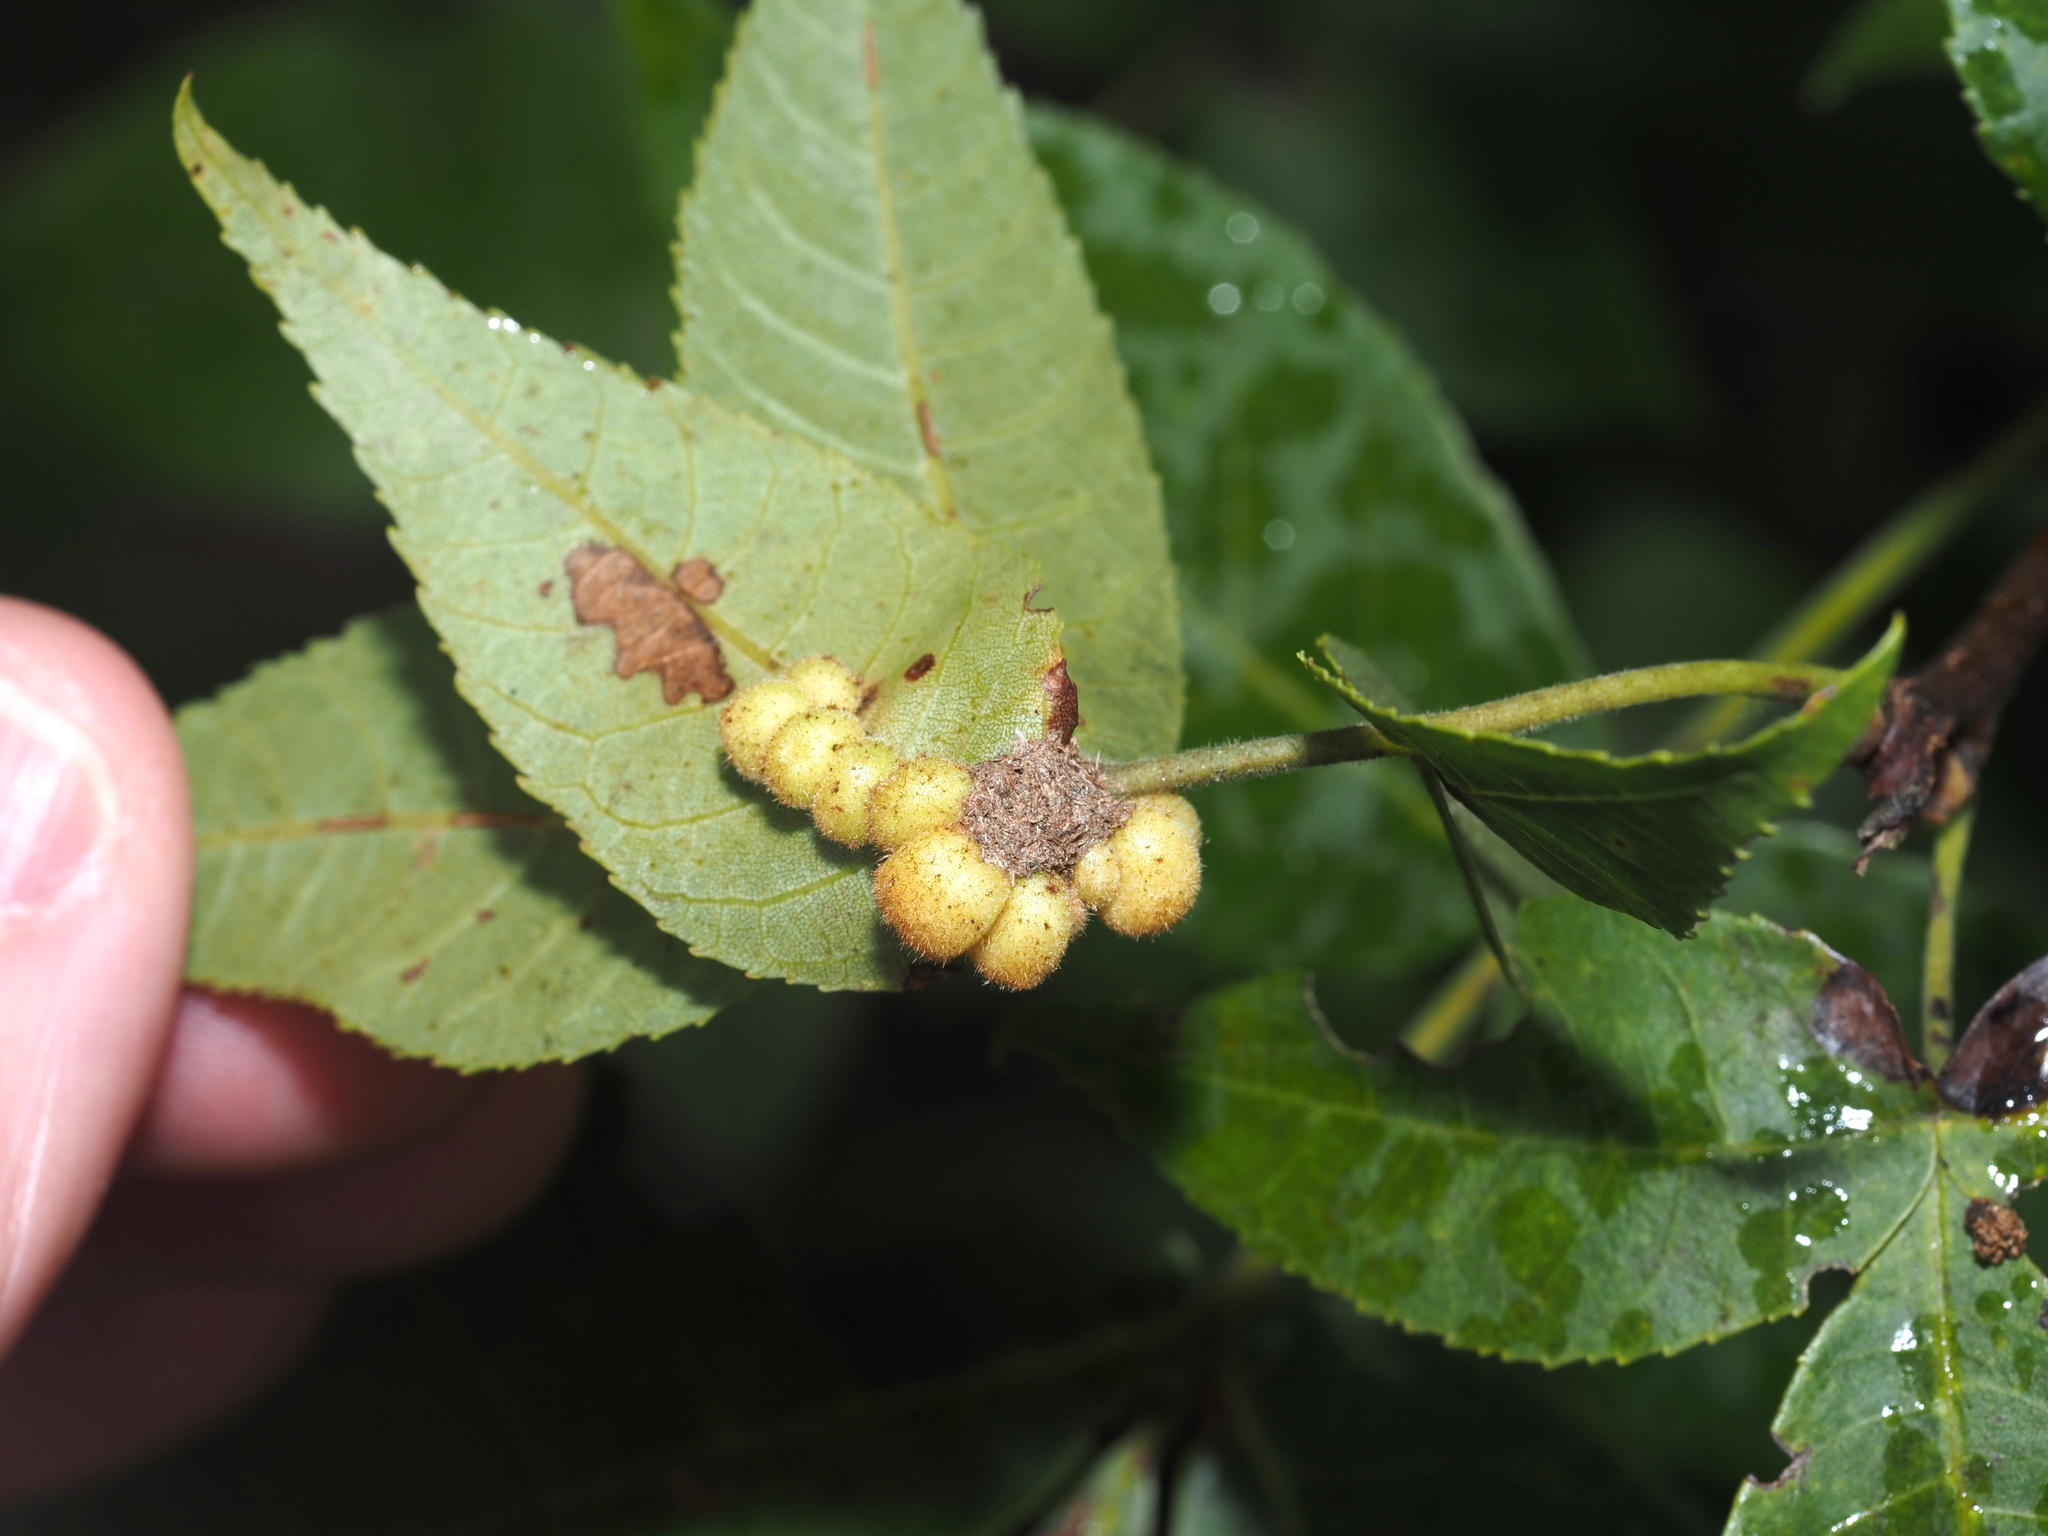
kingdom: Animalia
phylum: Arthropoda
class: Insecta
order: Diptera
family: Cecidomyiidae
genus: Caryomyia
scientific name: Caryomyia aggregata
